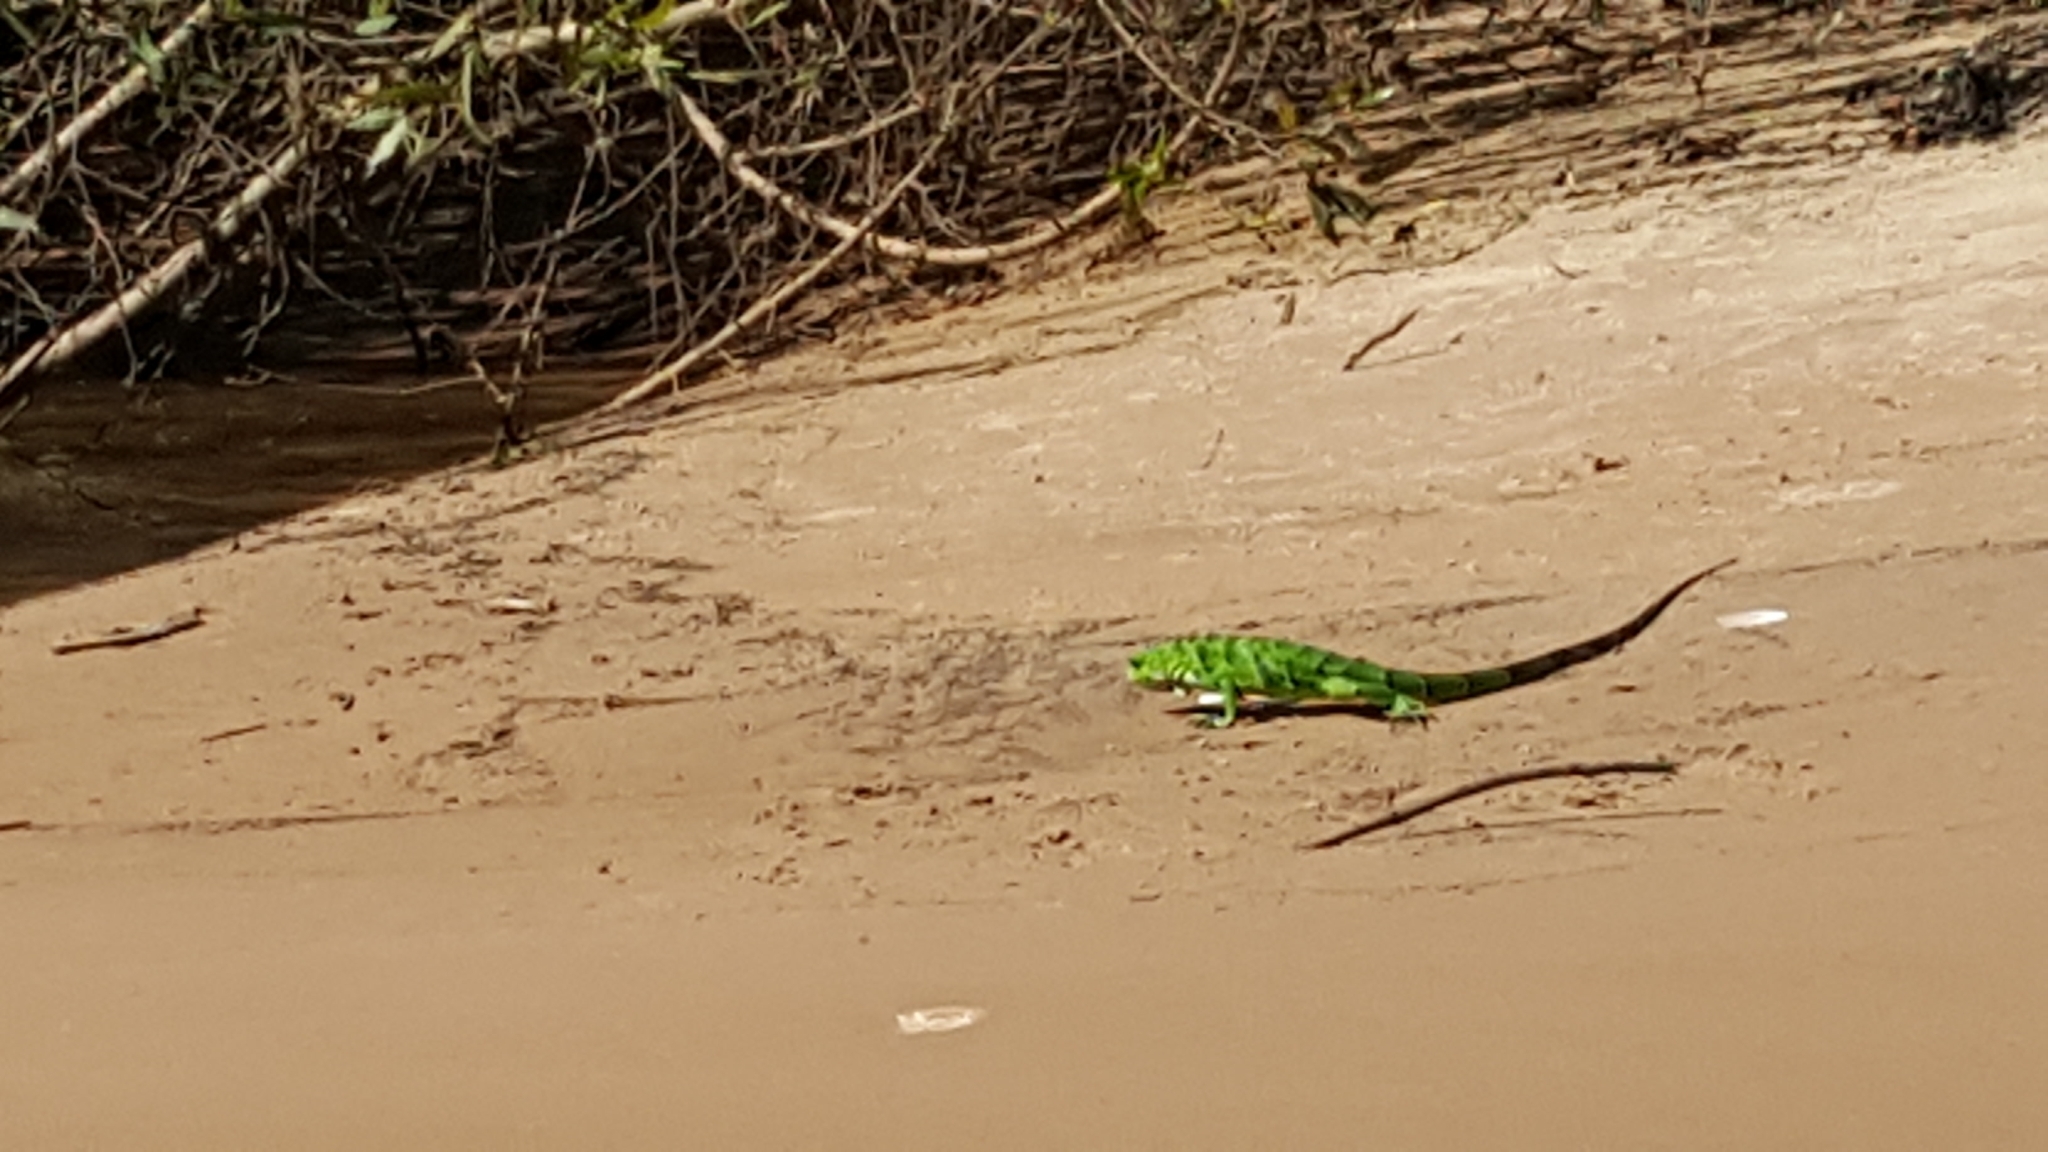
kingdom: Animalia
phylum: Chordata
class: Squamata
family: Iguanidae
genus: Iguana
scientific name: Iguana iguana
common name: Green iguana
